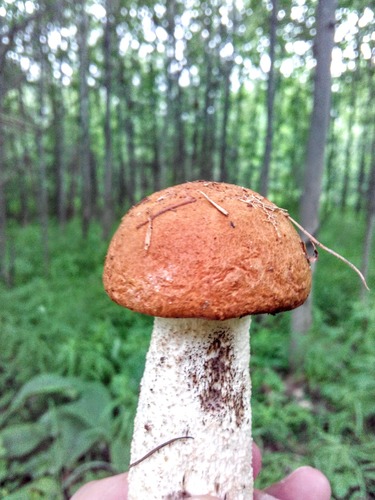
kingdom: Fungi
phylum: Basidiomycota
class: Agaricomycetes
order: Boletales
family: Boletaceae
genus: Leccinum
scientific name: Leccinum albostipitatum
